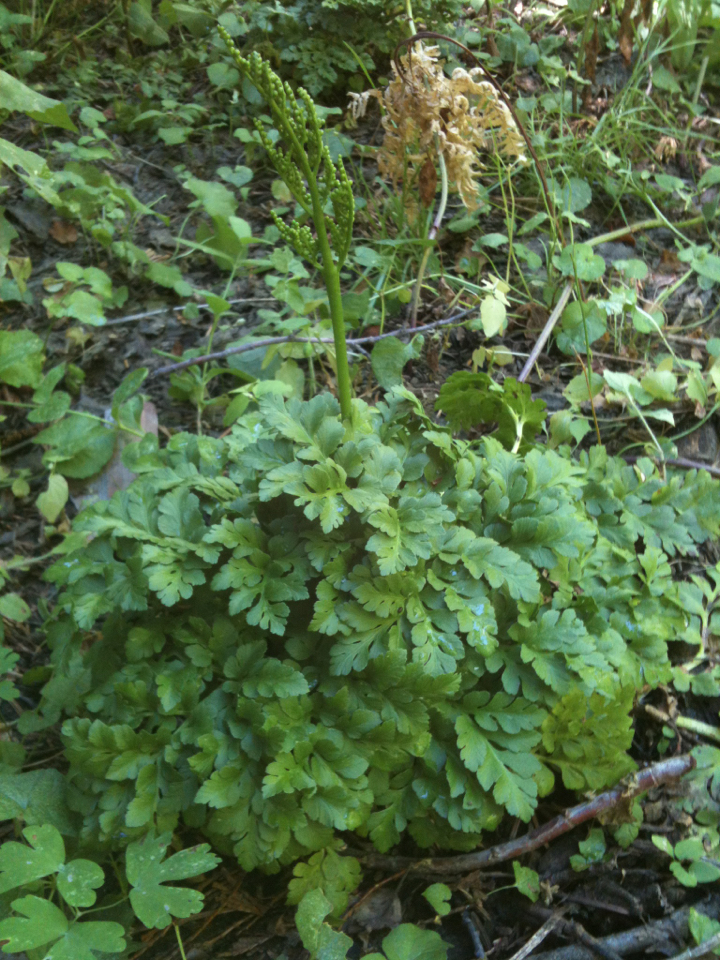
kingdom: Plantae
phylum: Tracheophyta
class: Polypodiopsida
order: Ophioglossales
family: Ophioglossaceae
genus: Sceptridium
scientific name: Sceptridium multifidum
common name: Leathery grape fern
